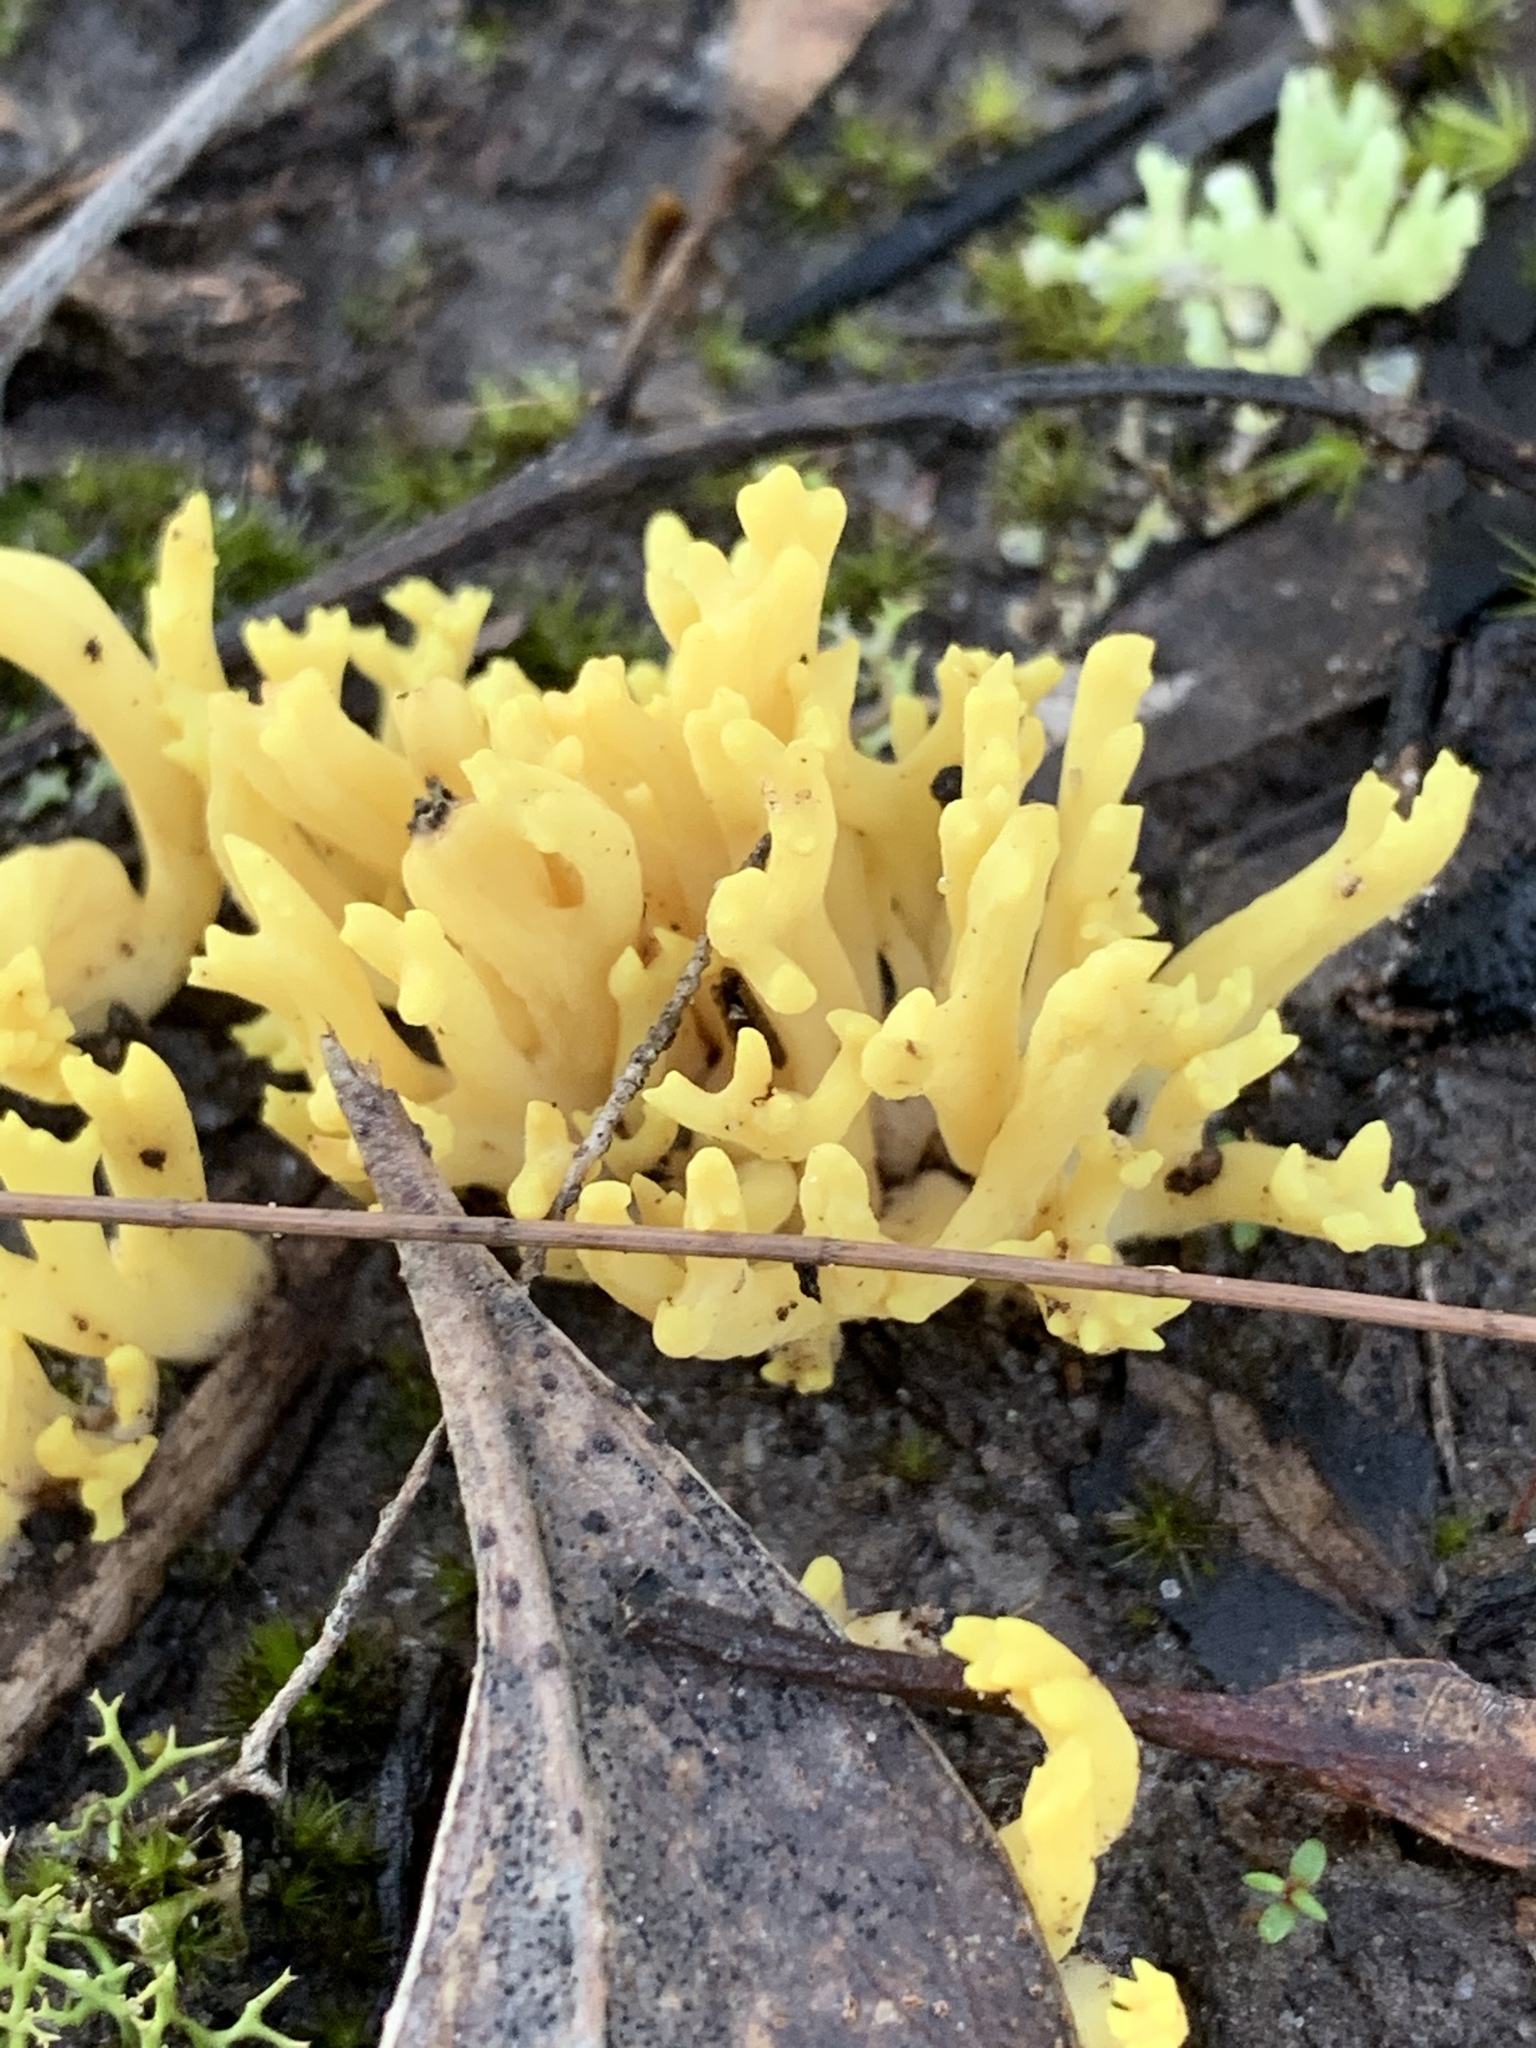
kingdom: Fungi
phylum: Basidiomycota
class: Agaricomycetes
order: Gomphales
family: Gomphaceae
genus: Ramaria
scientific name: Ramaria lorithamnus
